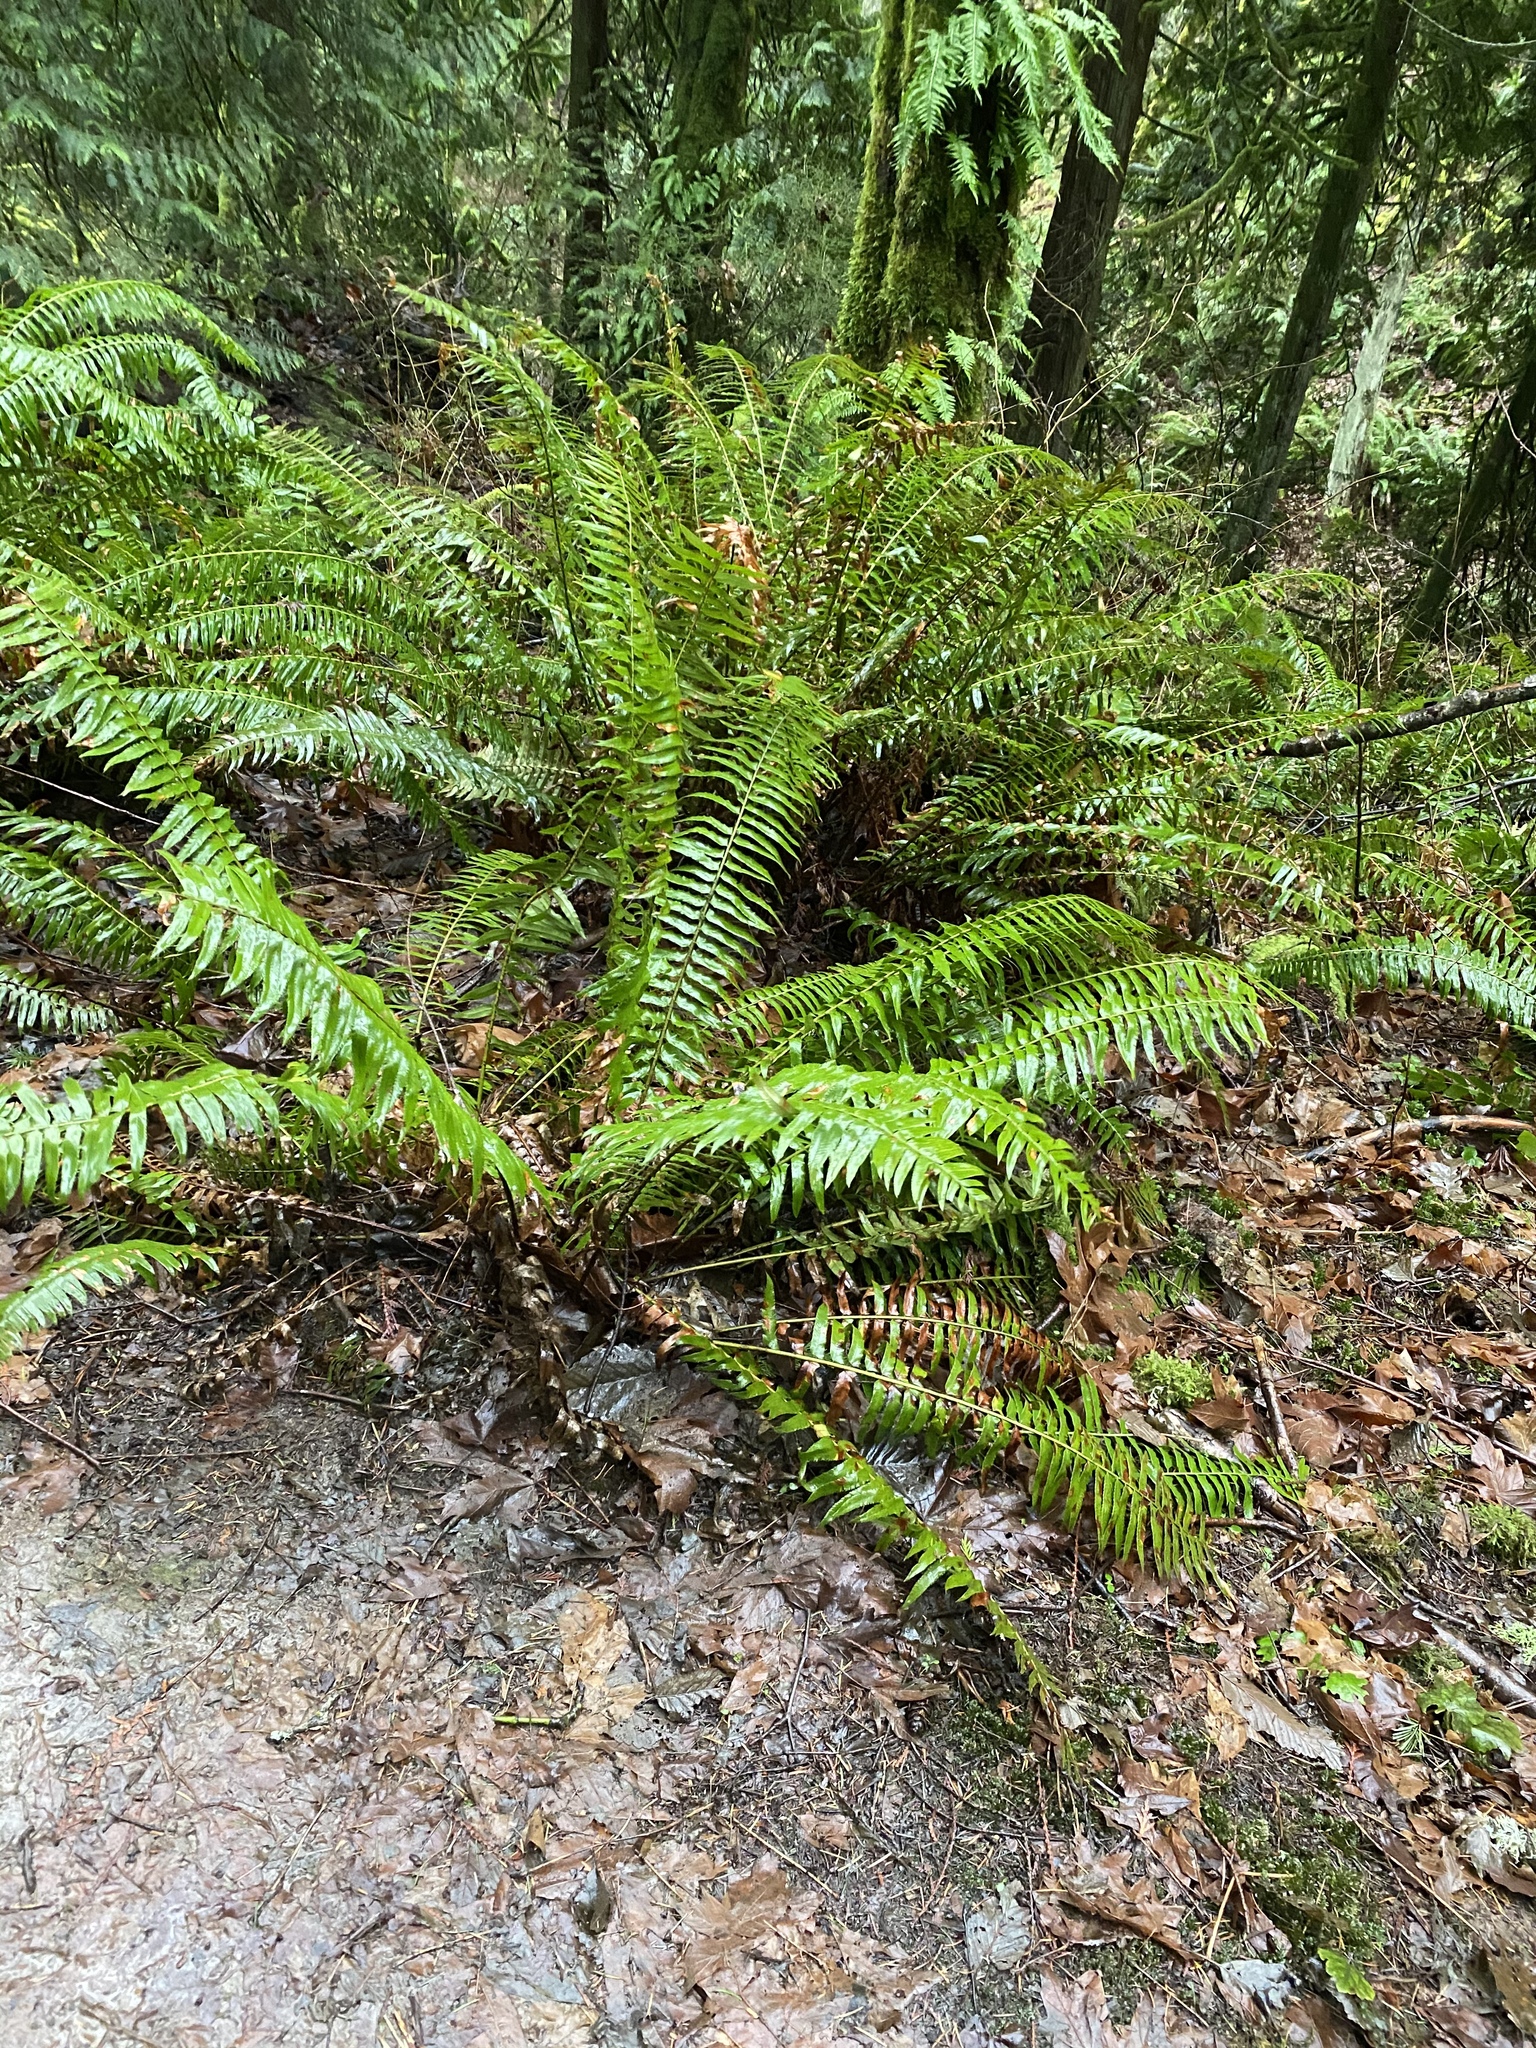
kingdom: Plantae
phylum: Tracheophyta
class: Polypodiopsida
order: Polypodiales
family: Dryopteridaceae
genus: Polystichum
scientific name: Polystichum munitum
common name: Western sword-fern
